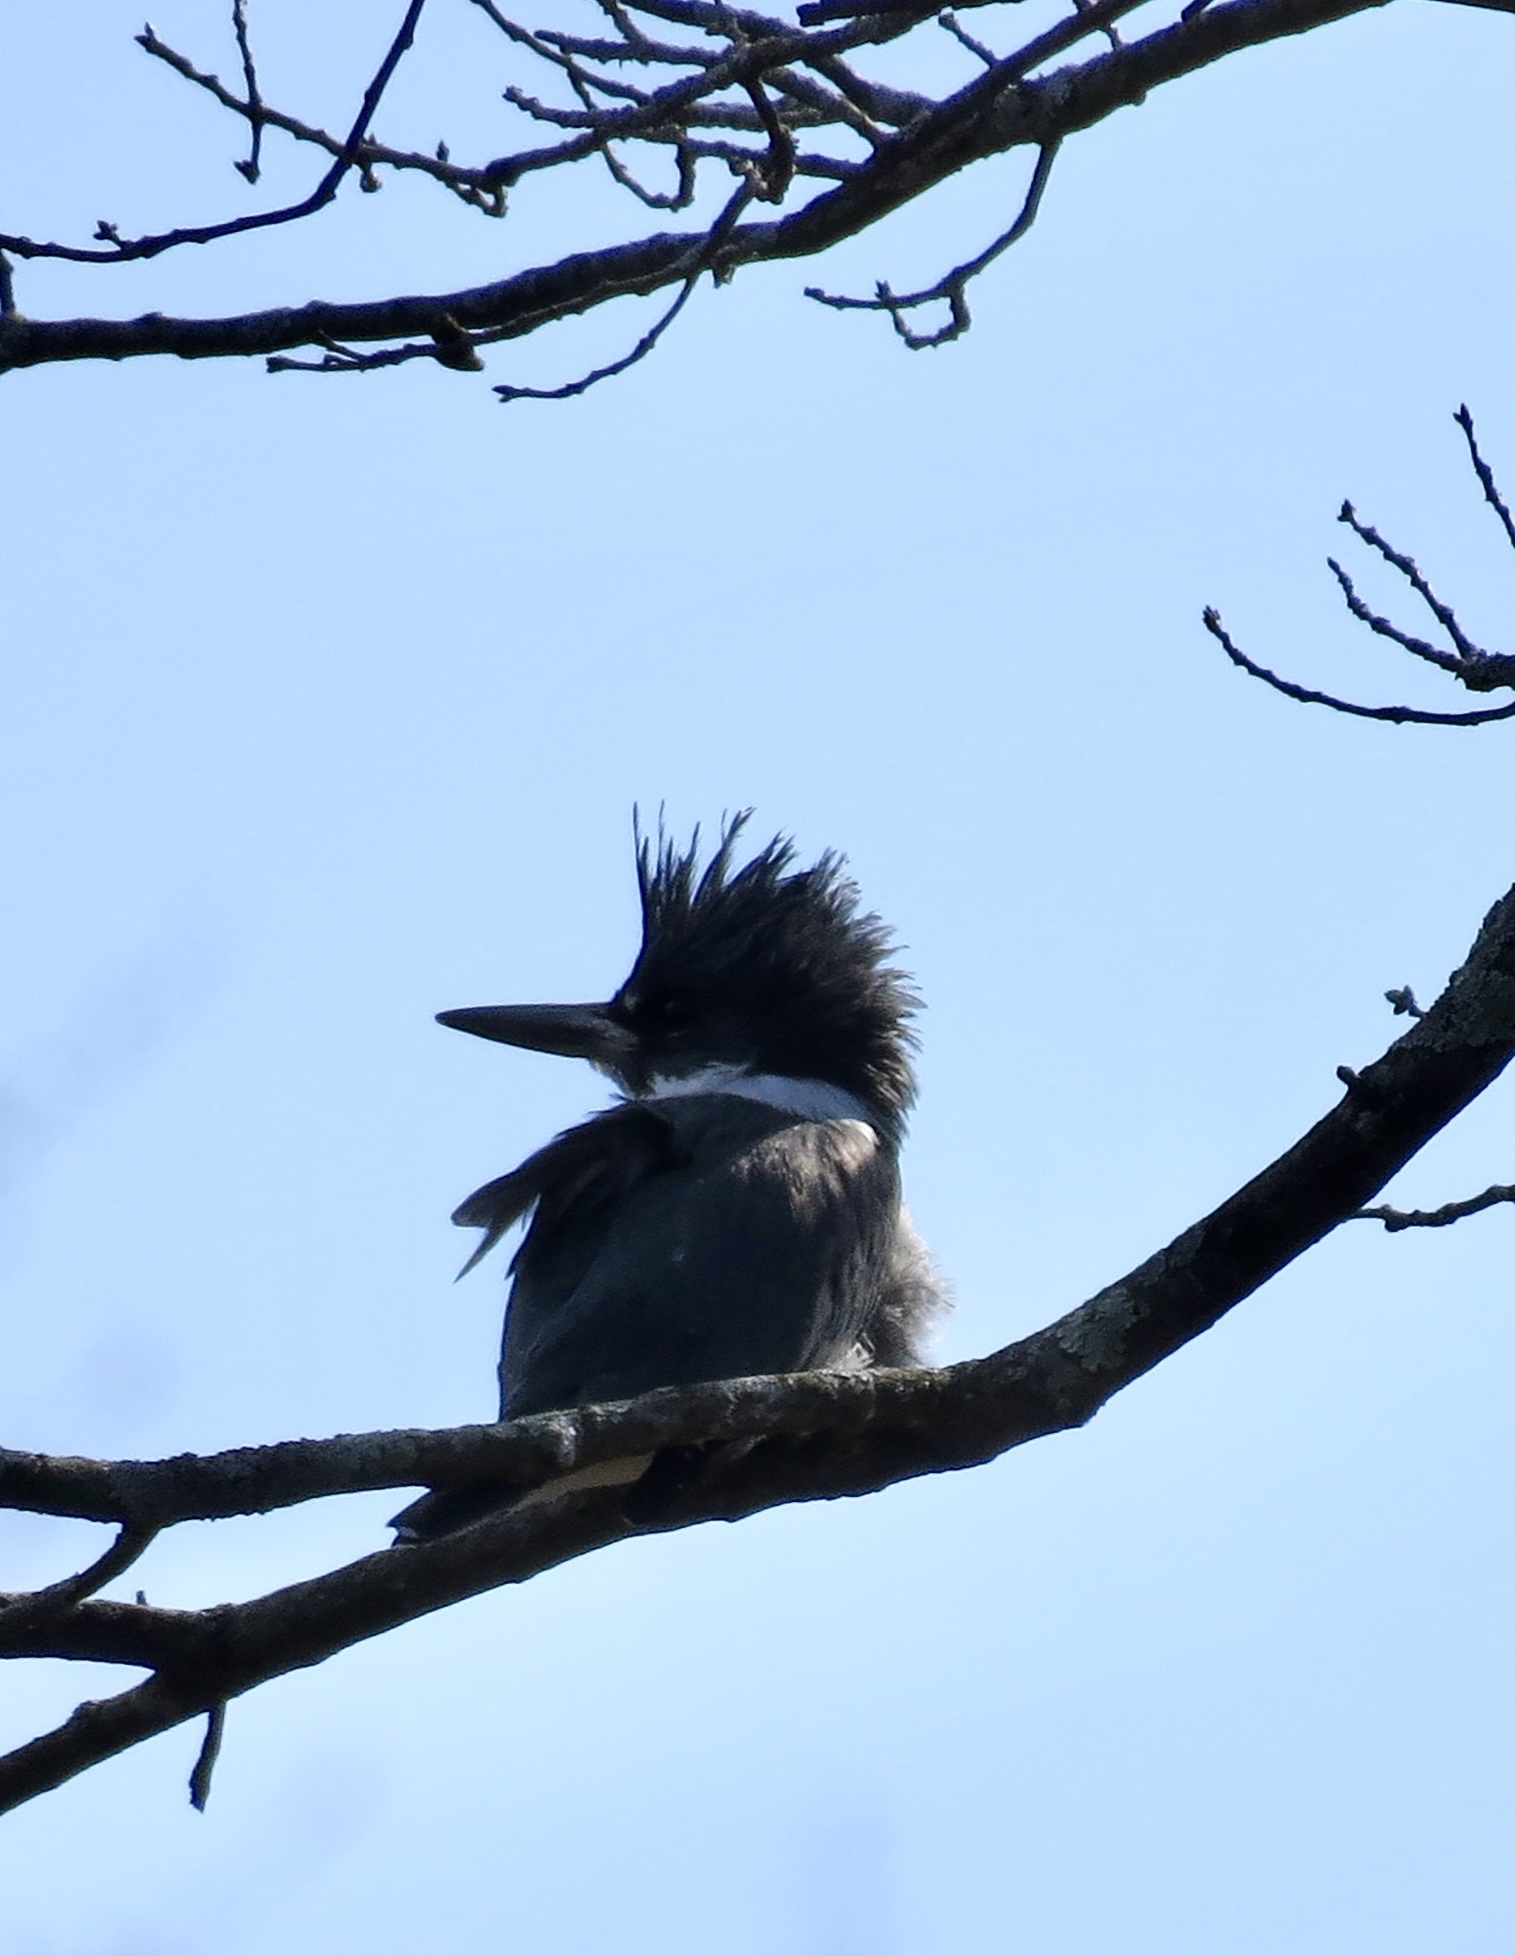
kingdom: Animalia
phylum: Chordata
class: Aves
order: Coraciiformes
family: Alcedinidae
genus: Megaceryle
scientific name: Megaceryle alcyon
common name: Belted kingfisher
